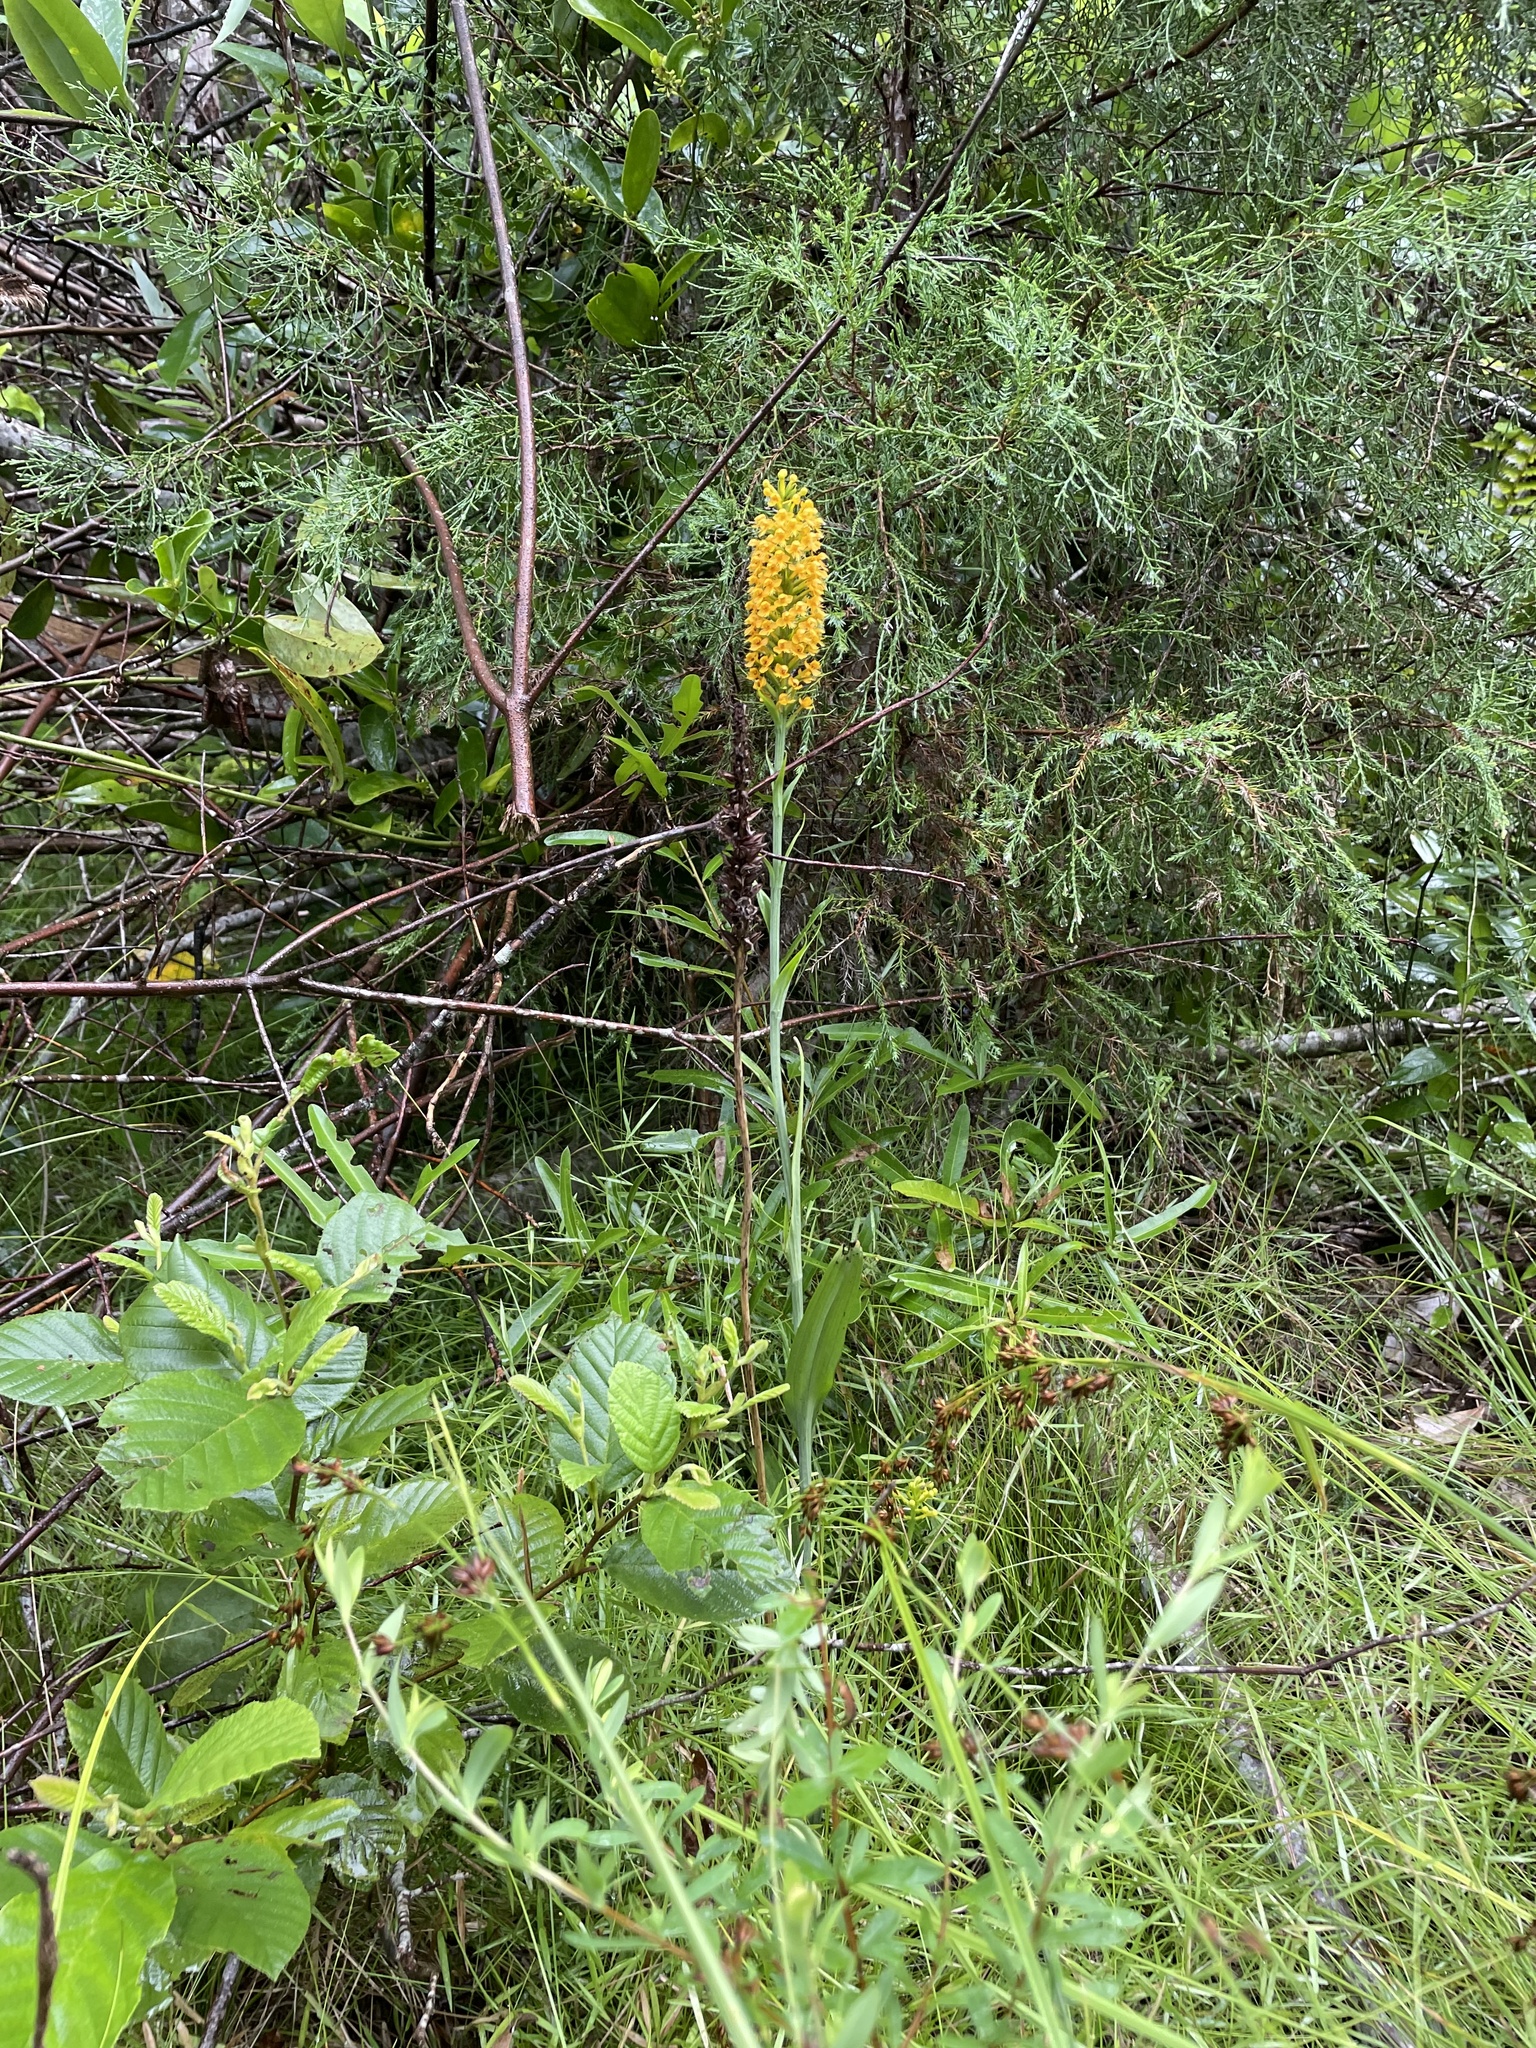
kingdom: Plantae
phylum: Tracheophyta
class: Liliopsida
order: Asparagales
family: Orchidaceae
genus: Platanthera
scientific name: Platanthera cristata
